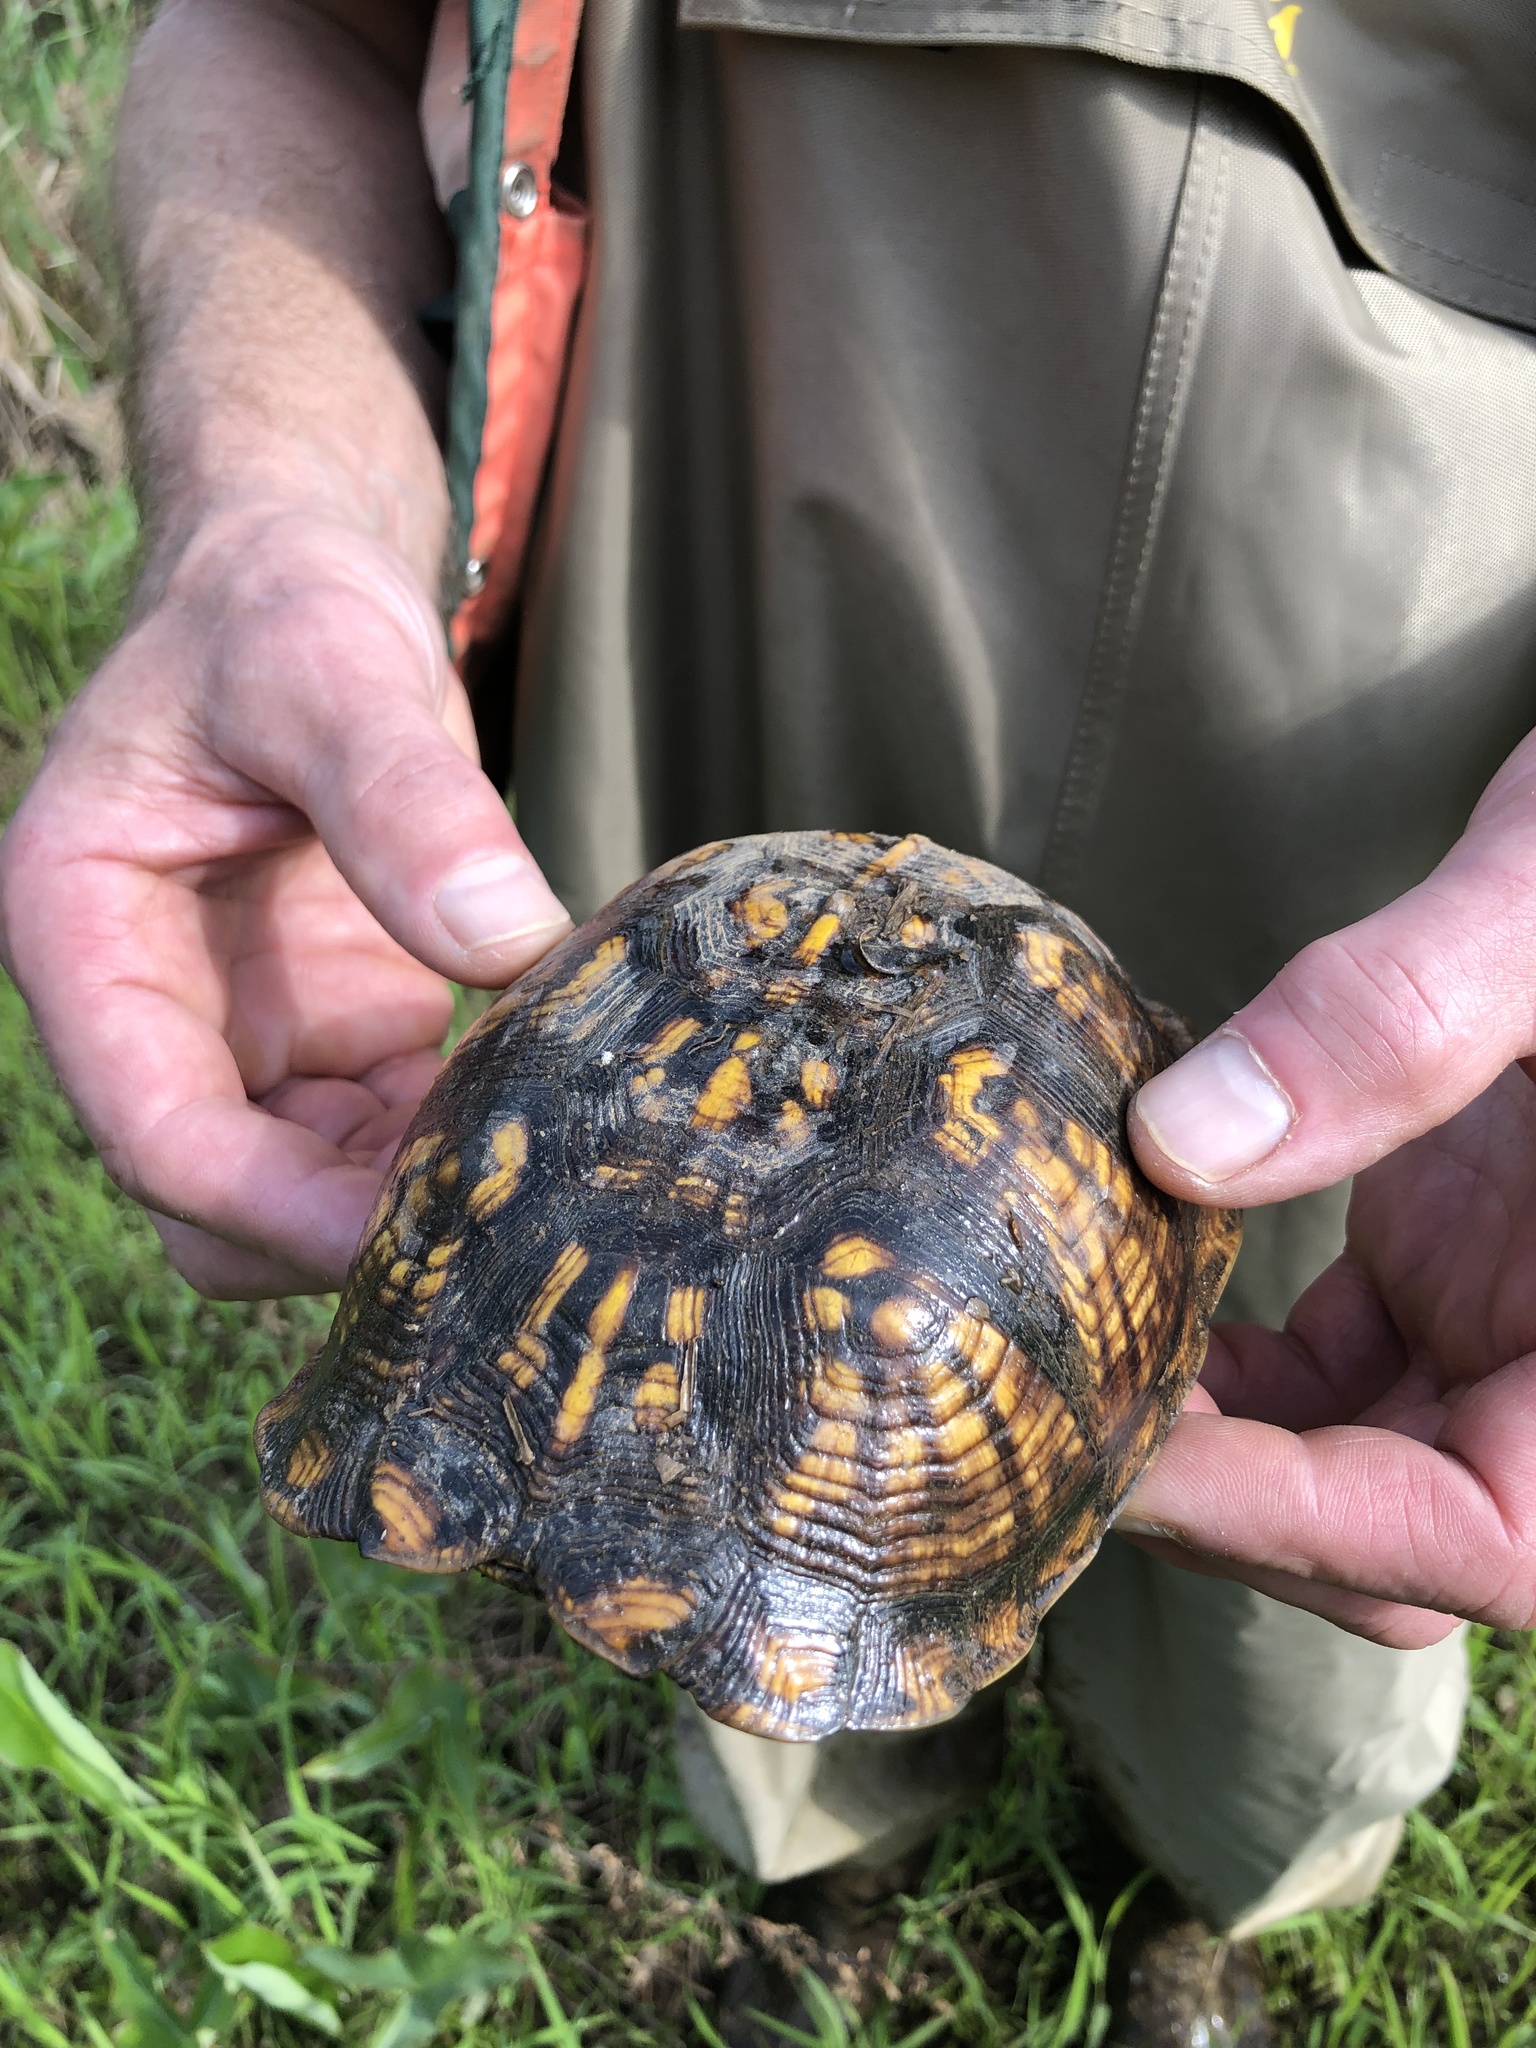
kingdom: Animalia
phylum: Chordata
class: Testudines
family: Emydidae
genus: Terrapene
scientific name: Terrapene carolina
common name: Common box turtle
